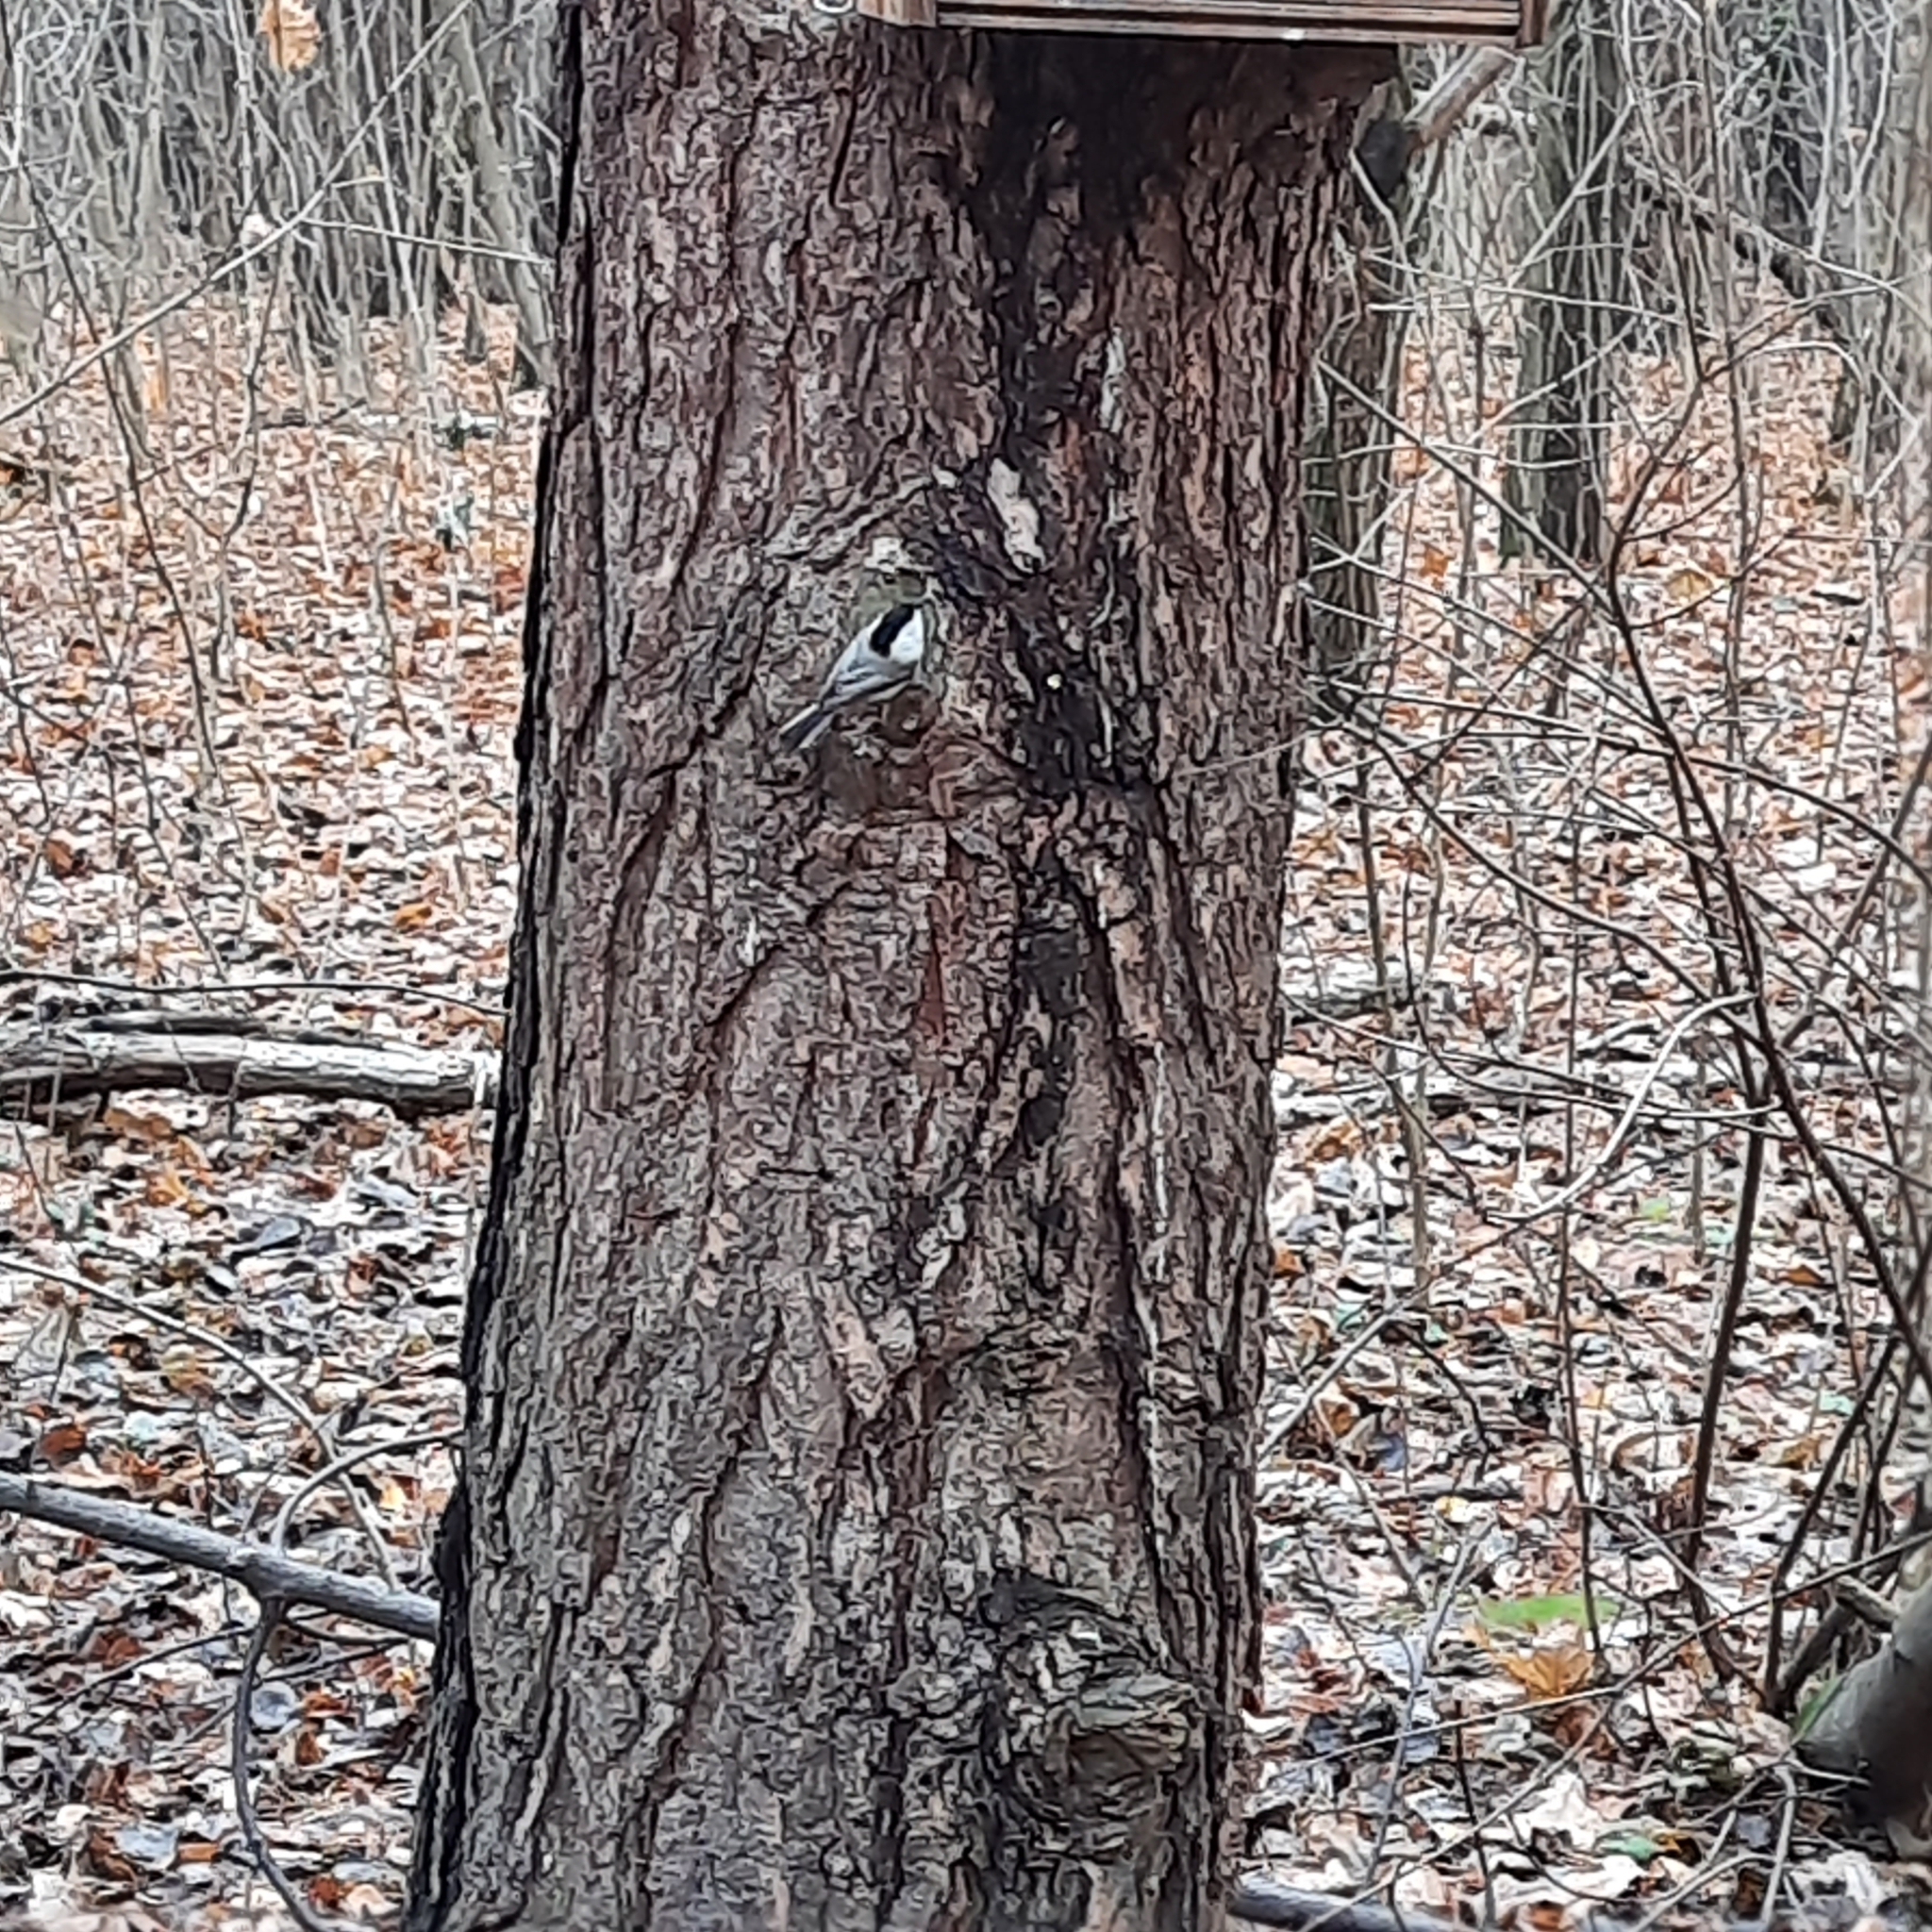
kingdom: Animalia
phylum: Chordata
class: Aves
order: Passeriformes
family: Sittidae
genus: Sitta
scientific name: Sitta europaea
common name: Eurasian nuthatch
